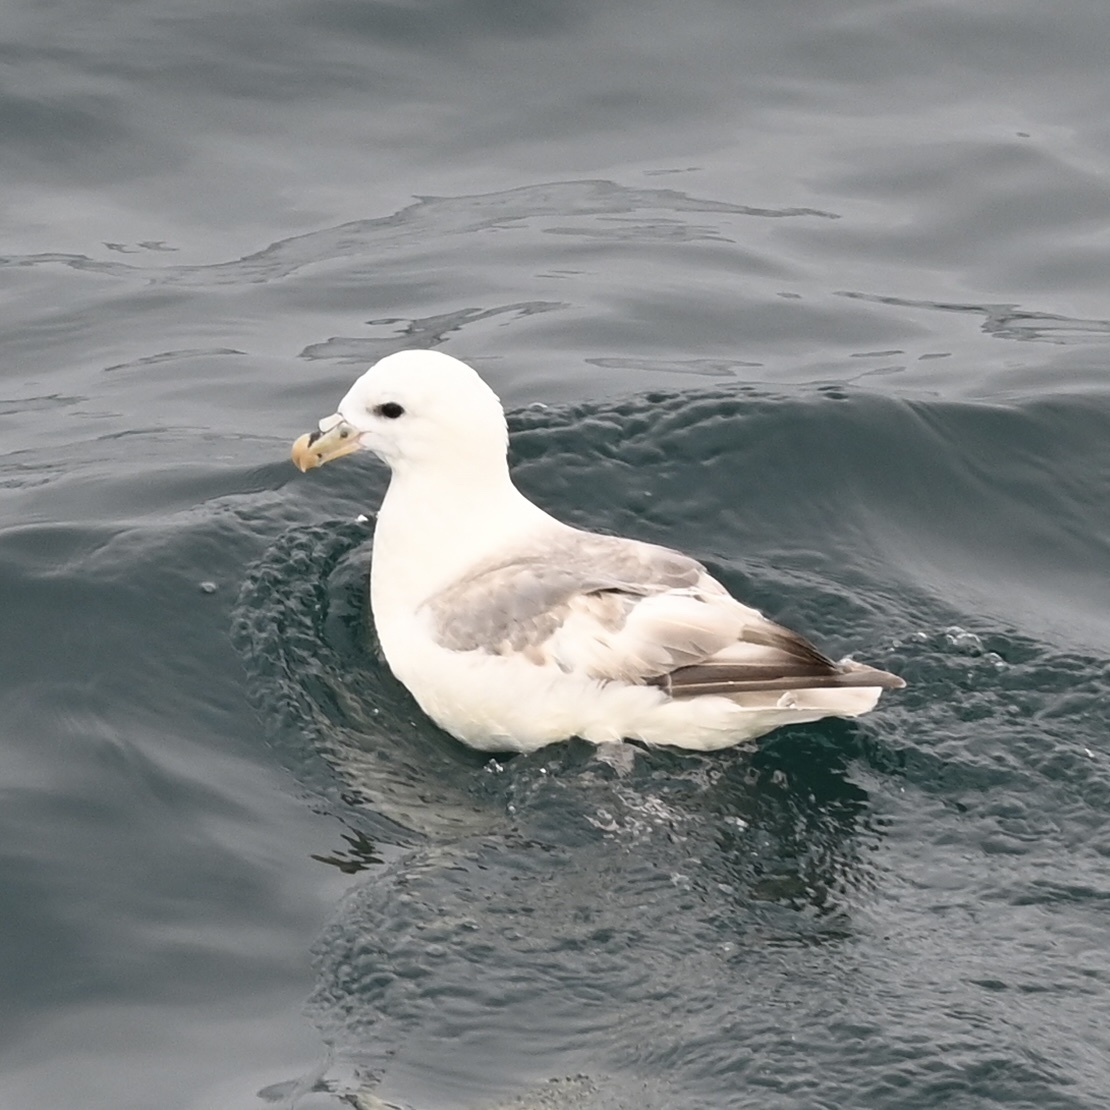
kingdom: Animalia
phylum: Chordata
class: Aves
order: Procellariiformes
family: Procellariidae
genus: Fulmarus
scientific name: Fulmarus glacialis
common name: Northern fulmar
